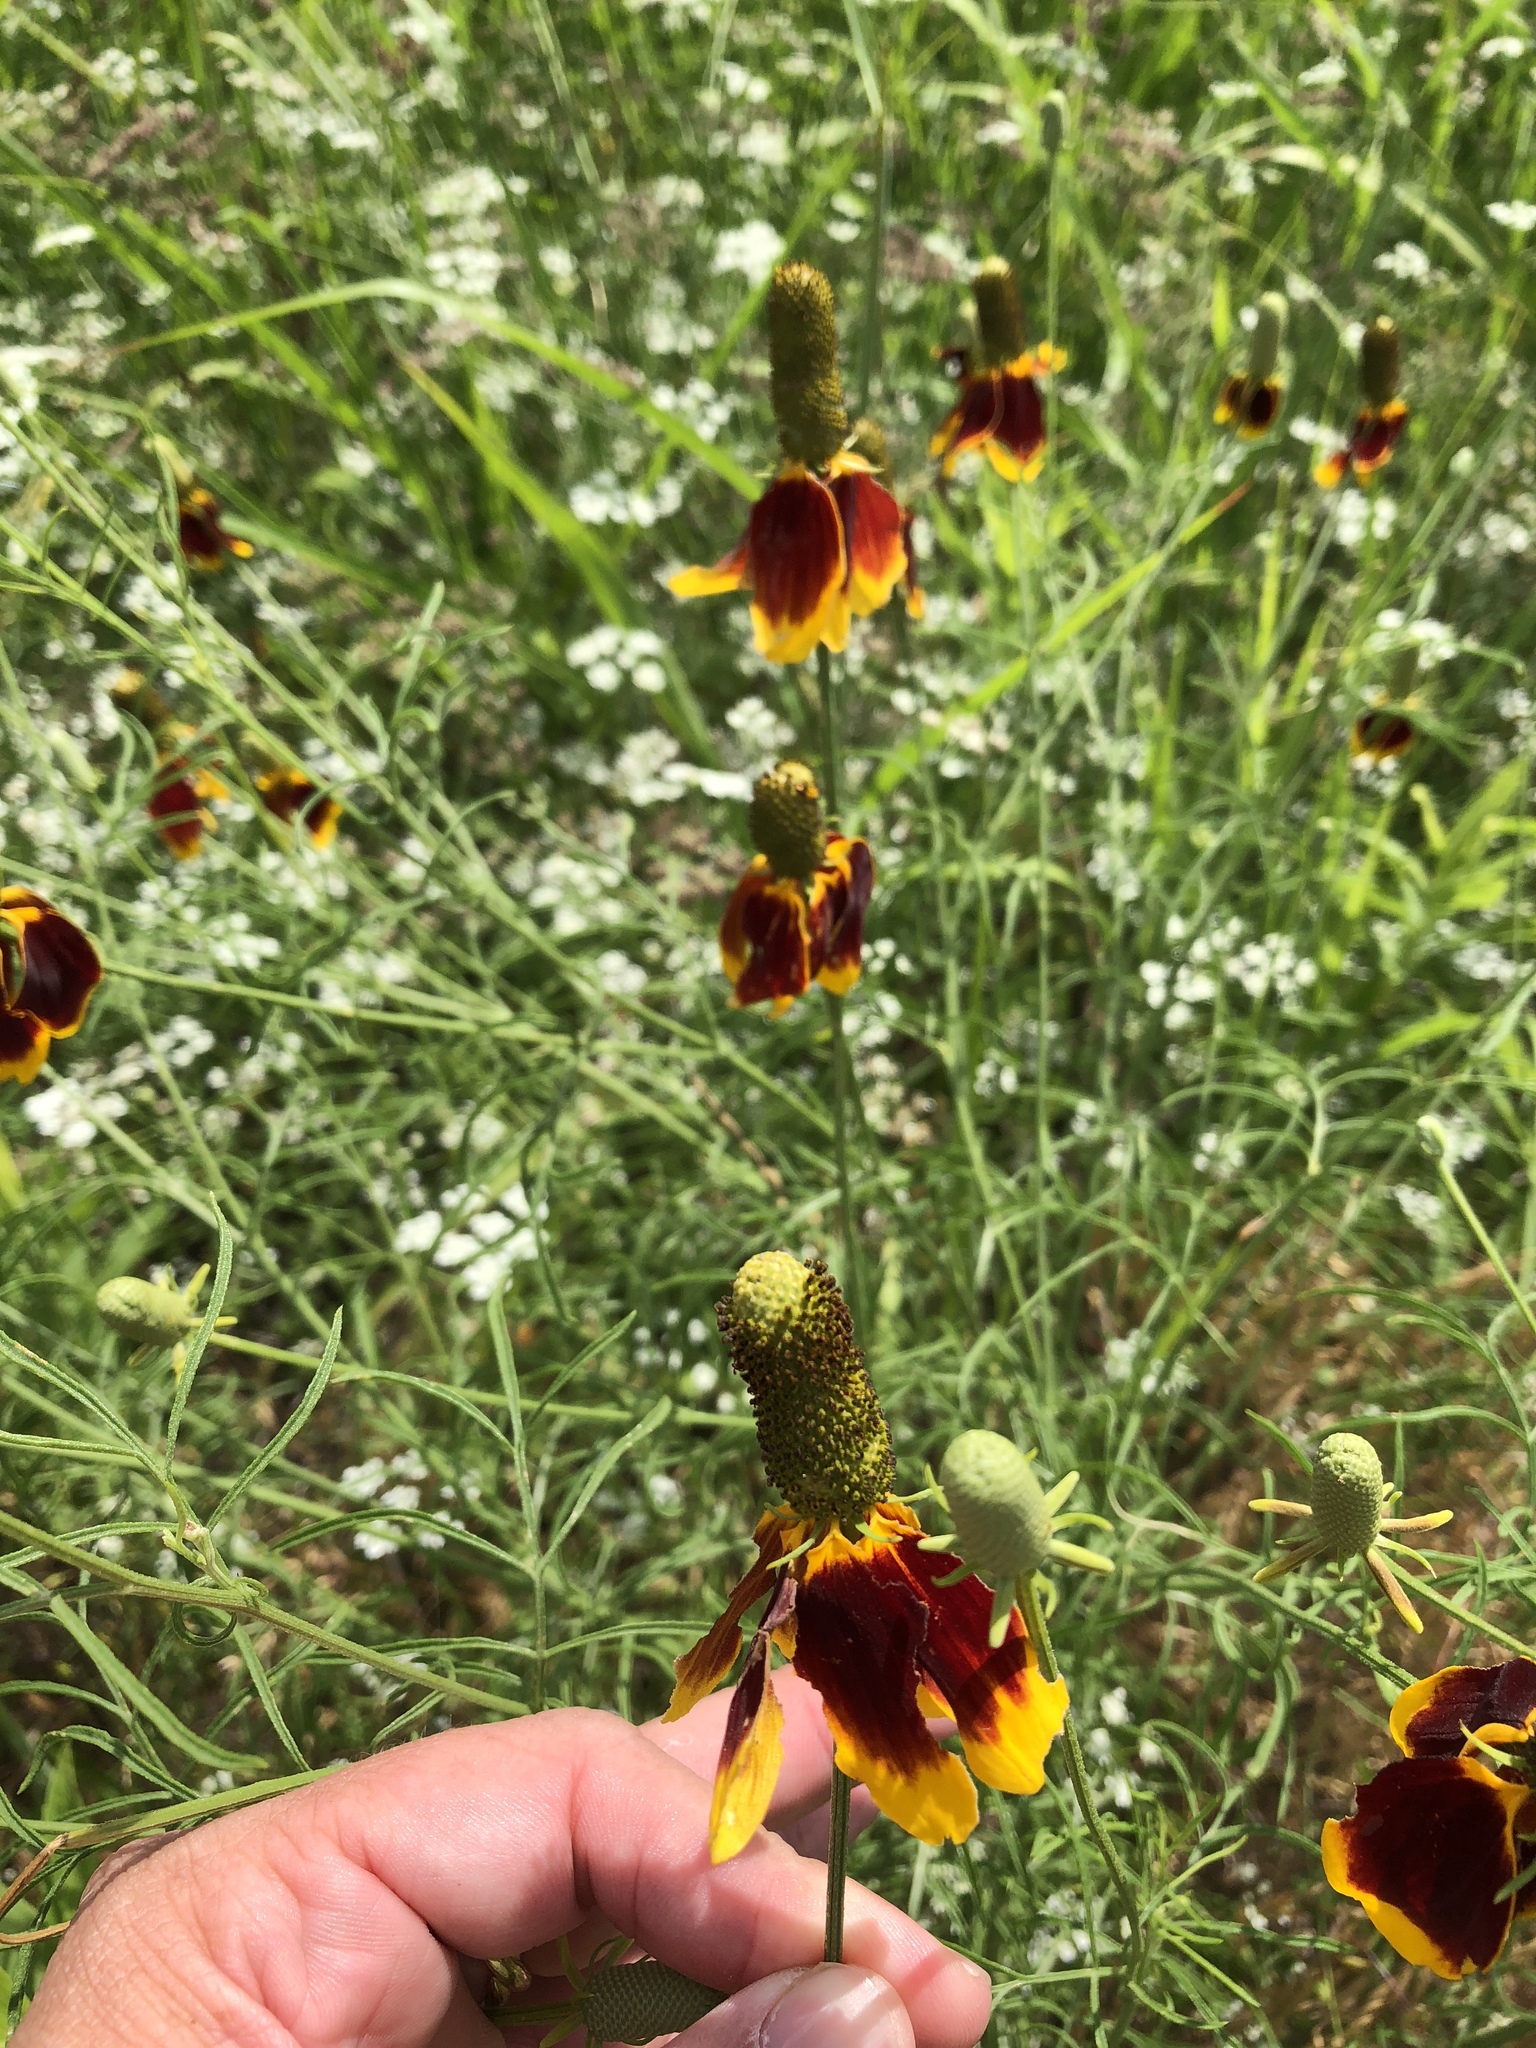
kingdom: Plantae
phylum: Tracheophyta
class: Magnoliopsida
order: Asterales
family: Asteraceae
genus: Ratibida
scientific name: Ratibida columnifera
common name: Prairie coneflower
